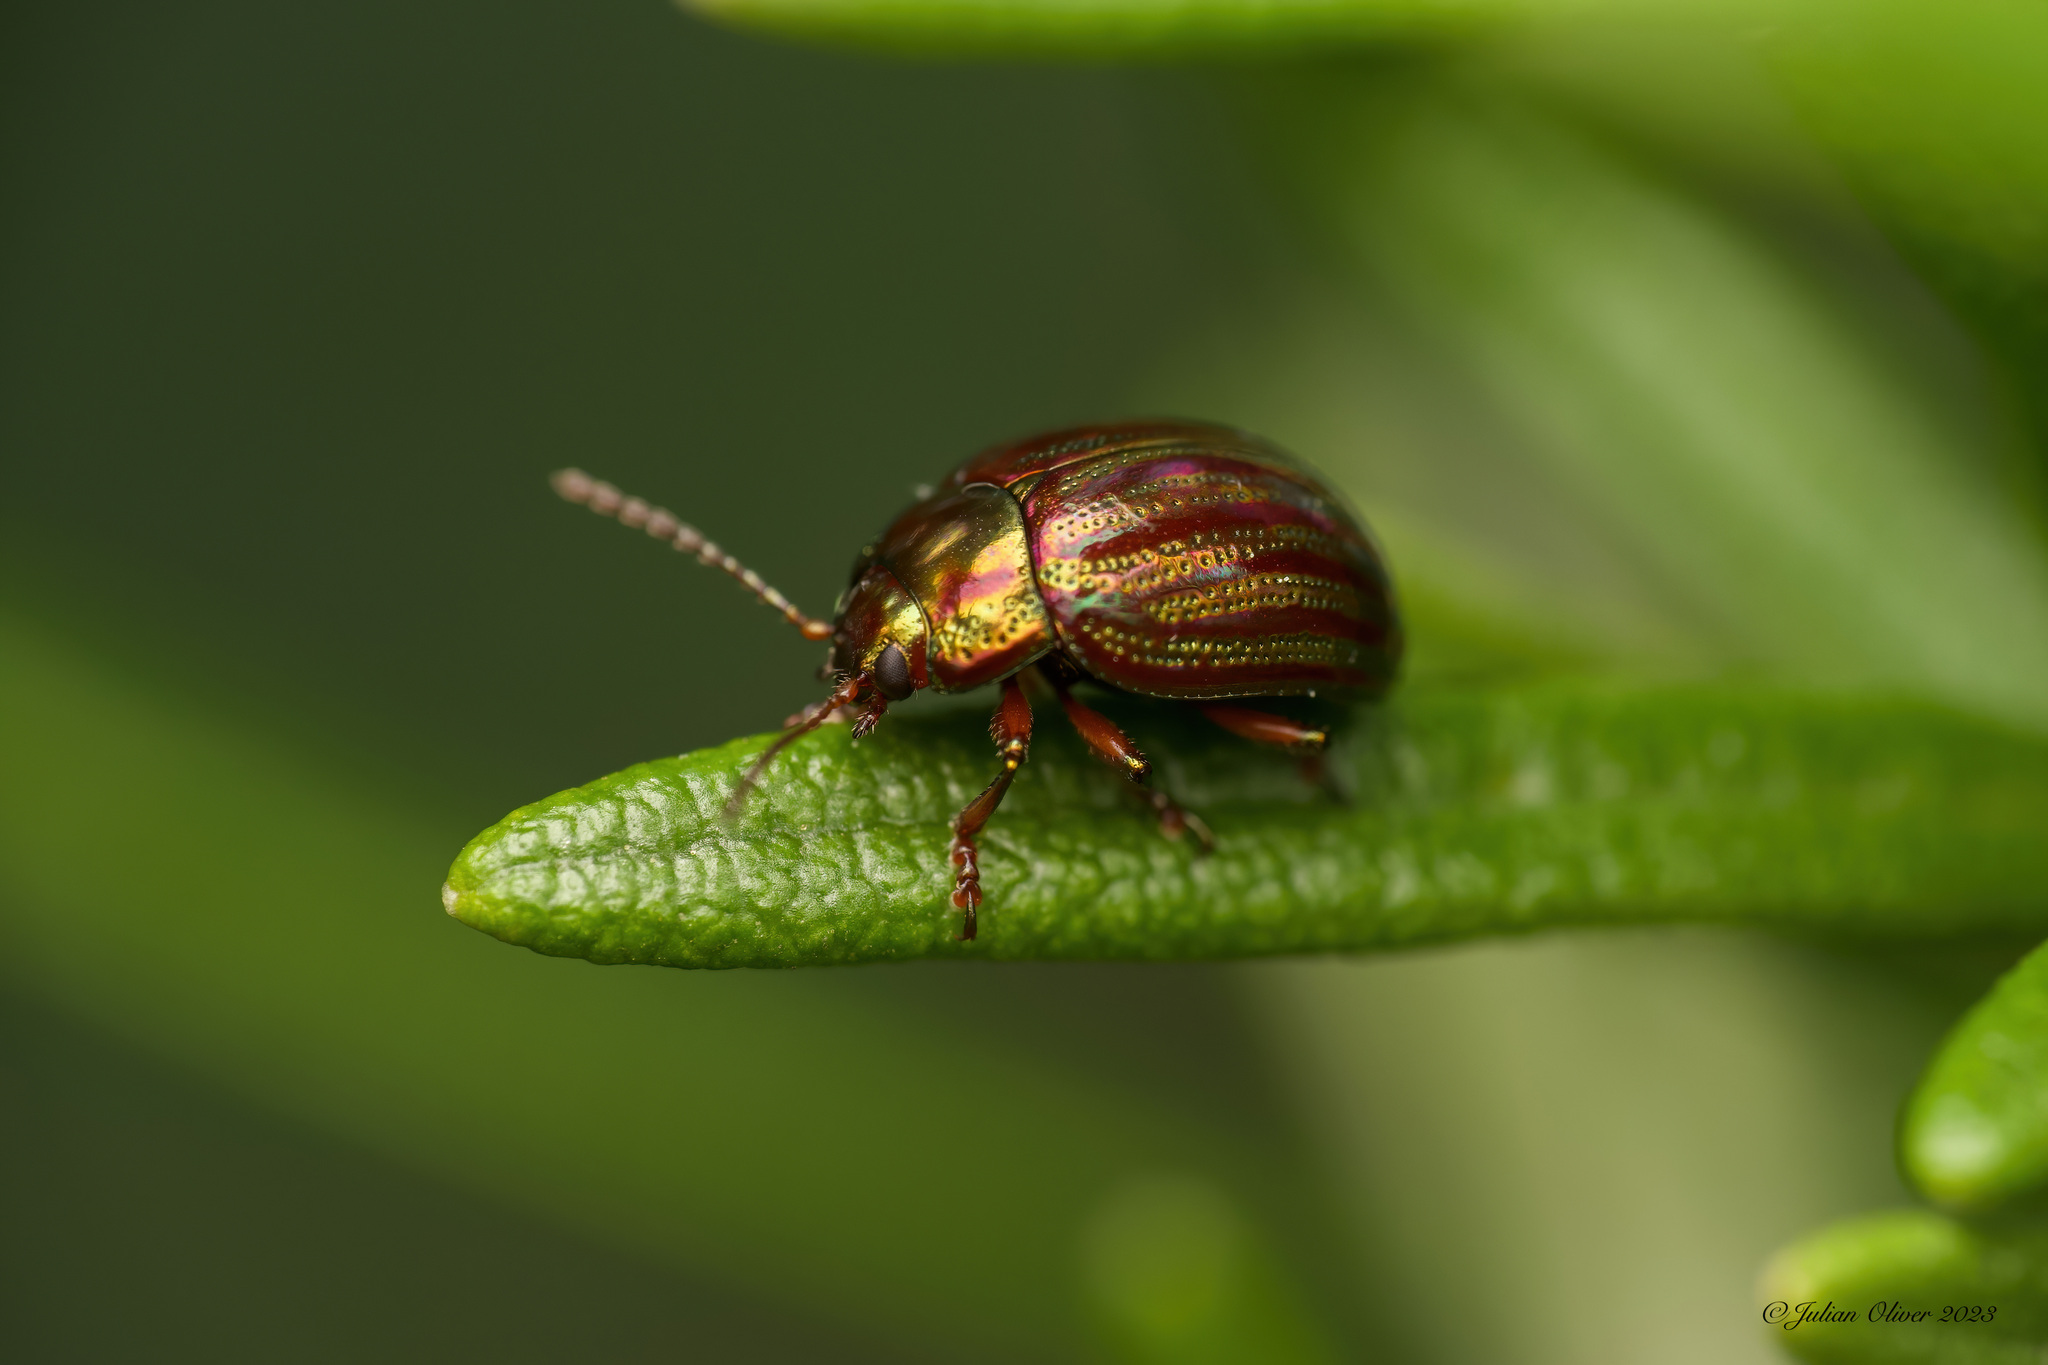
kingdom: Animalia
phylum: Arthropoda
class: Insecta
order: Coleoptera
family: Chrysomelidae
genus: Chrysolina
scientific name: Chrysolina americana
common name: Rosemary beetle
